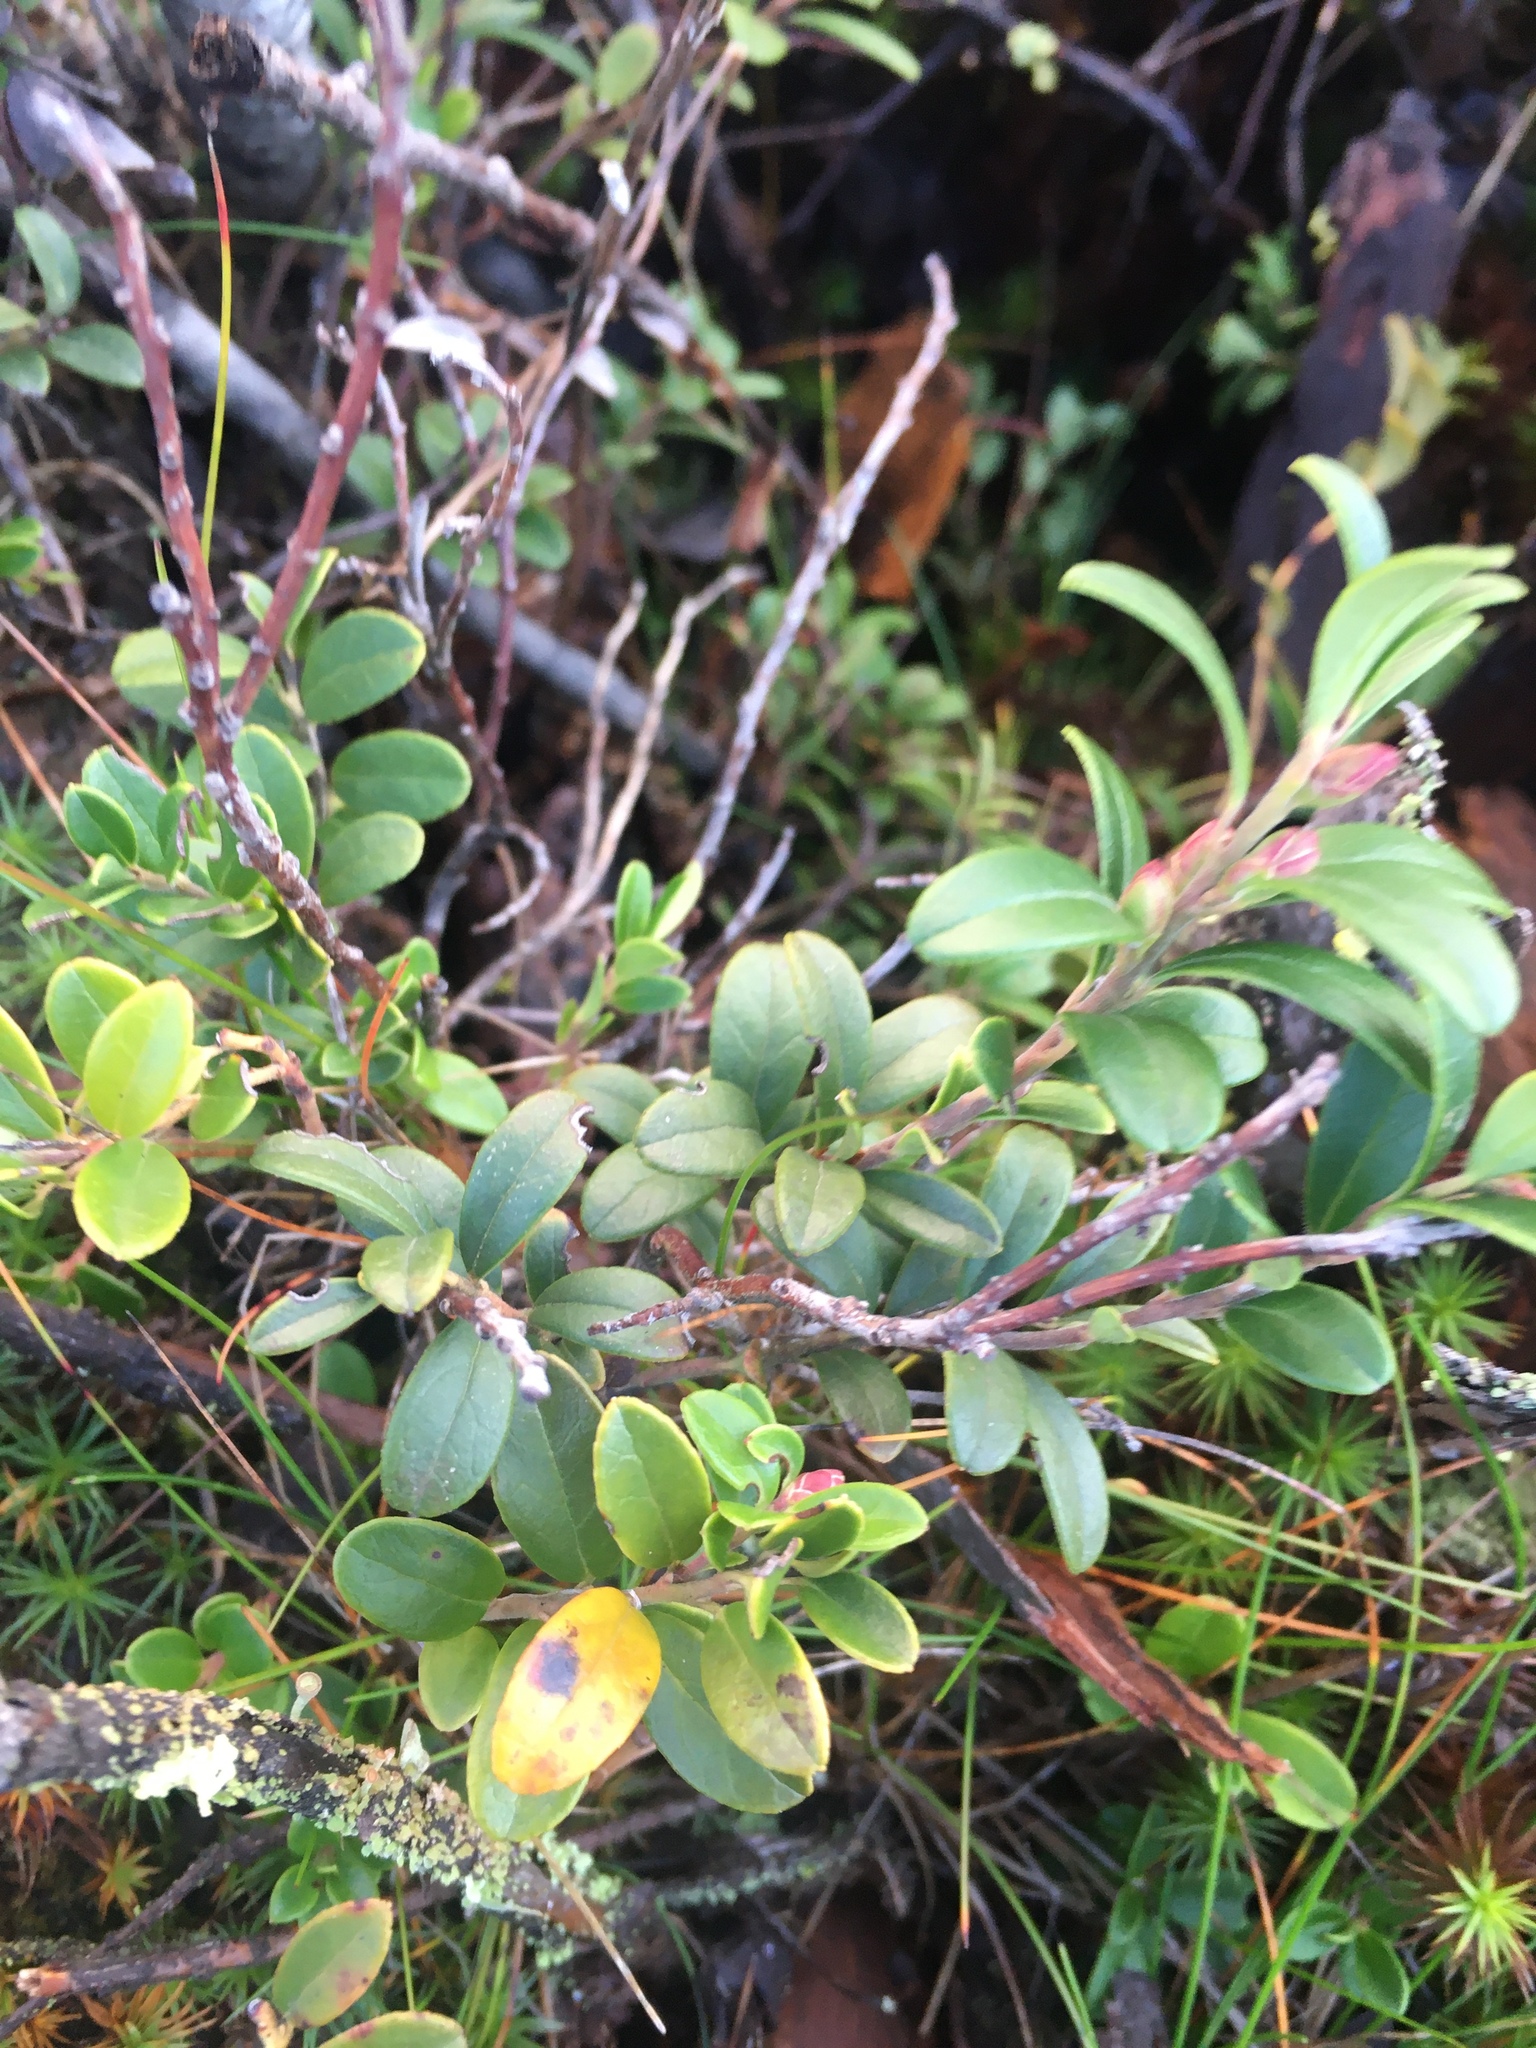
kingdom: Plantae
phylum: Tracheophyta
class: Magnoliopsida
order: Ericales
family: Ericaceae
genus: Vaccinium
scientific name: Vaccinium vitis-idaea
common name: Cowberry
